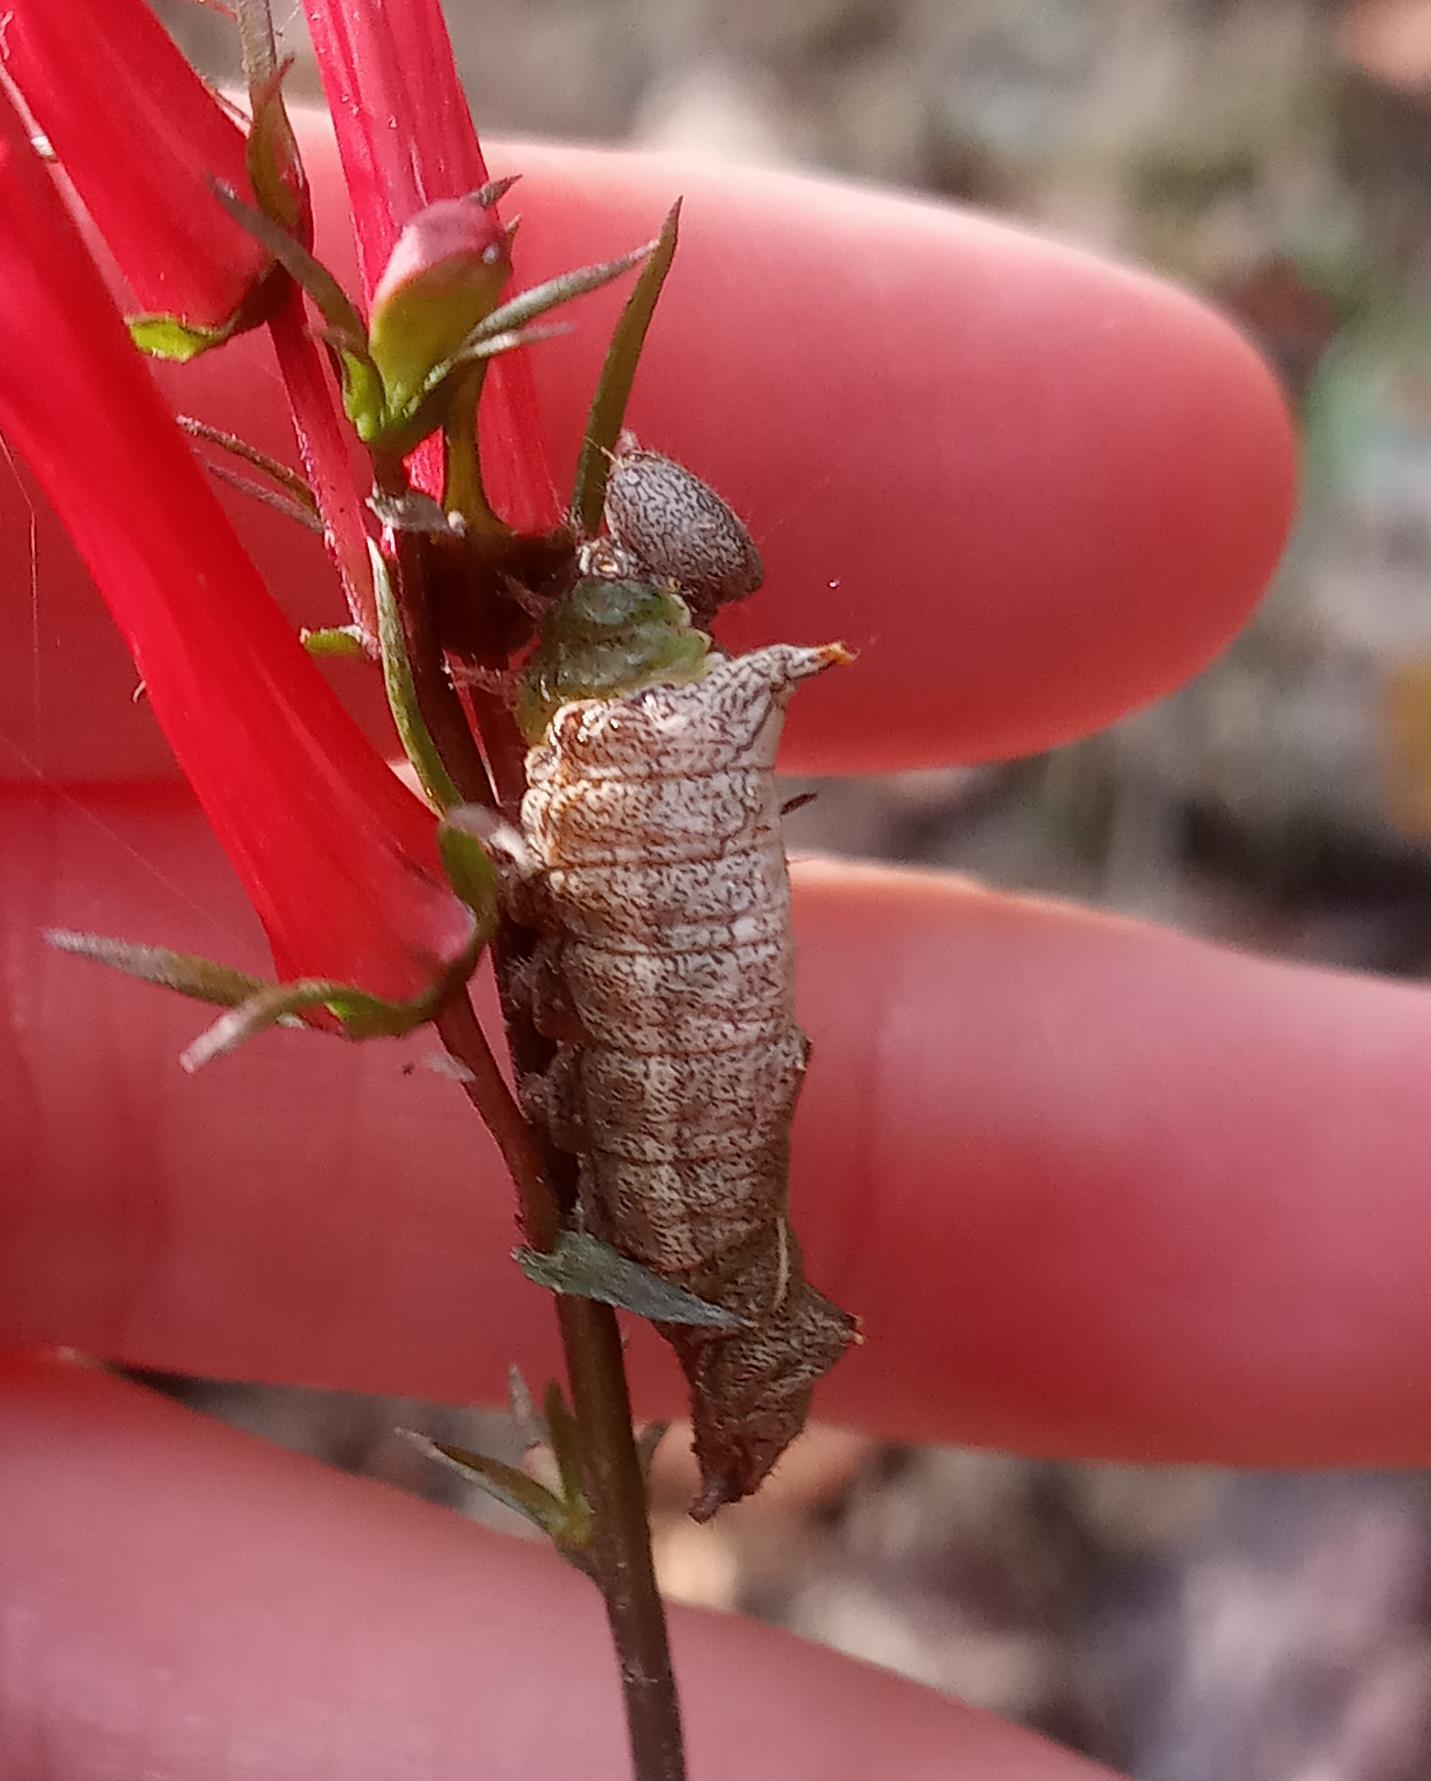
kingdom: Animalia
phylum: Arthropoda
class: Insecta
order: Lepidoptera
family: Notodontidae
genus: Schizura
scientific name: Schizura
